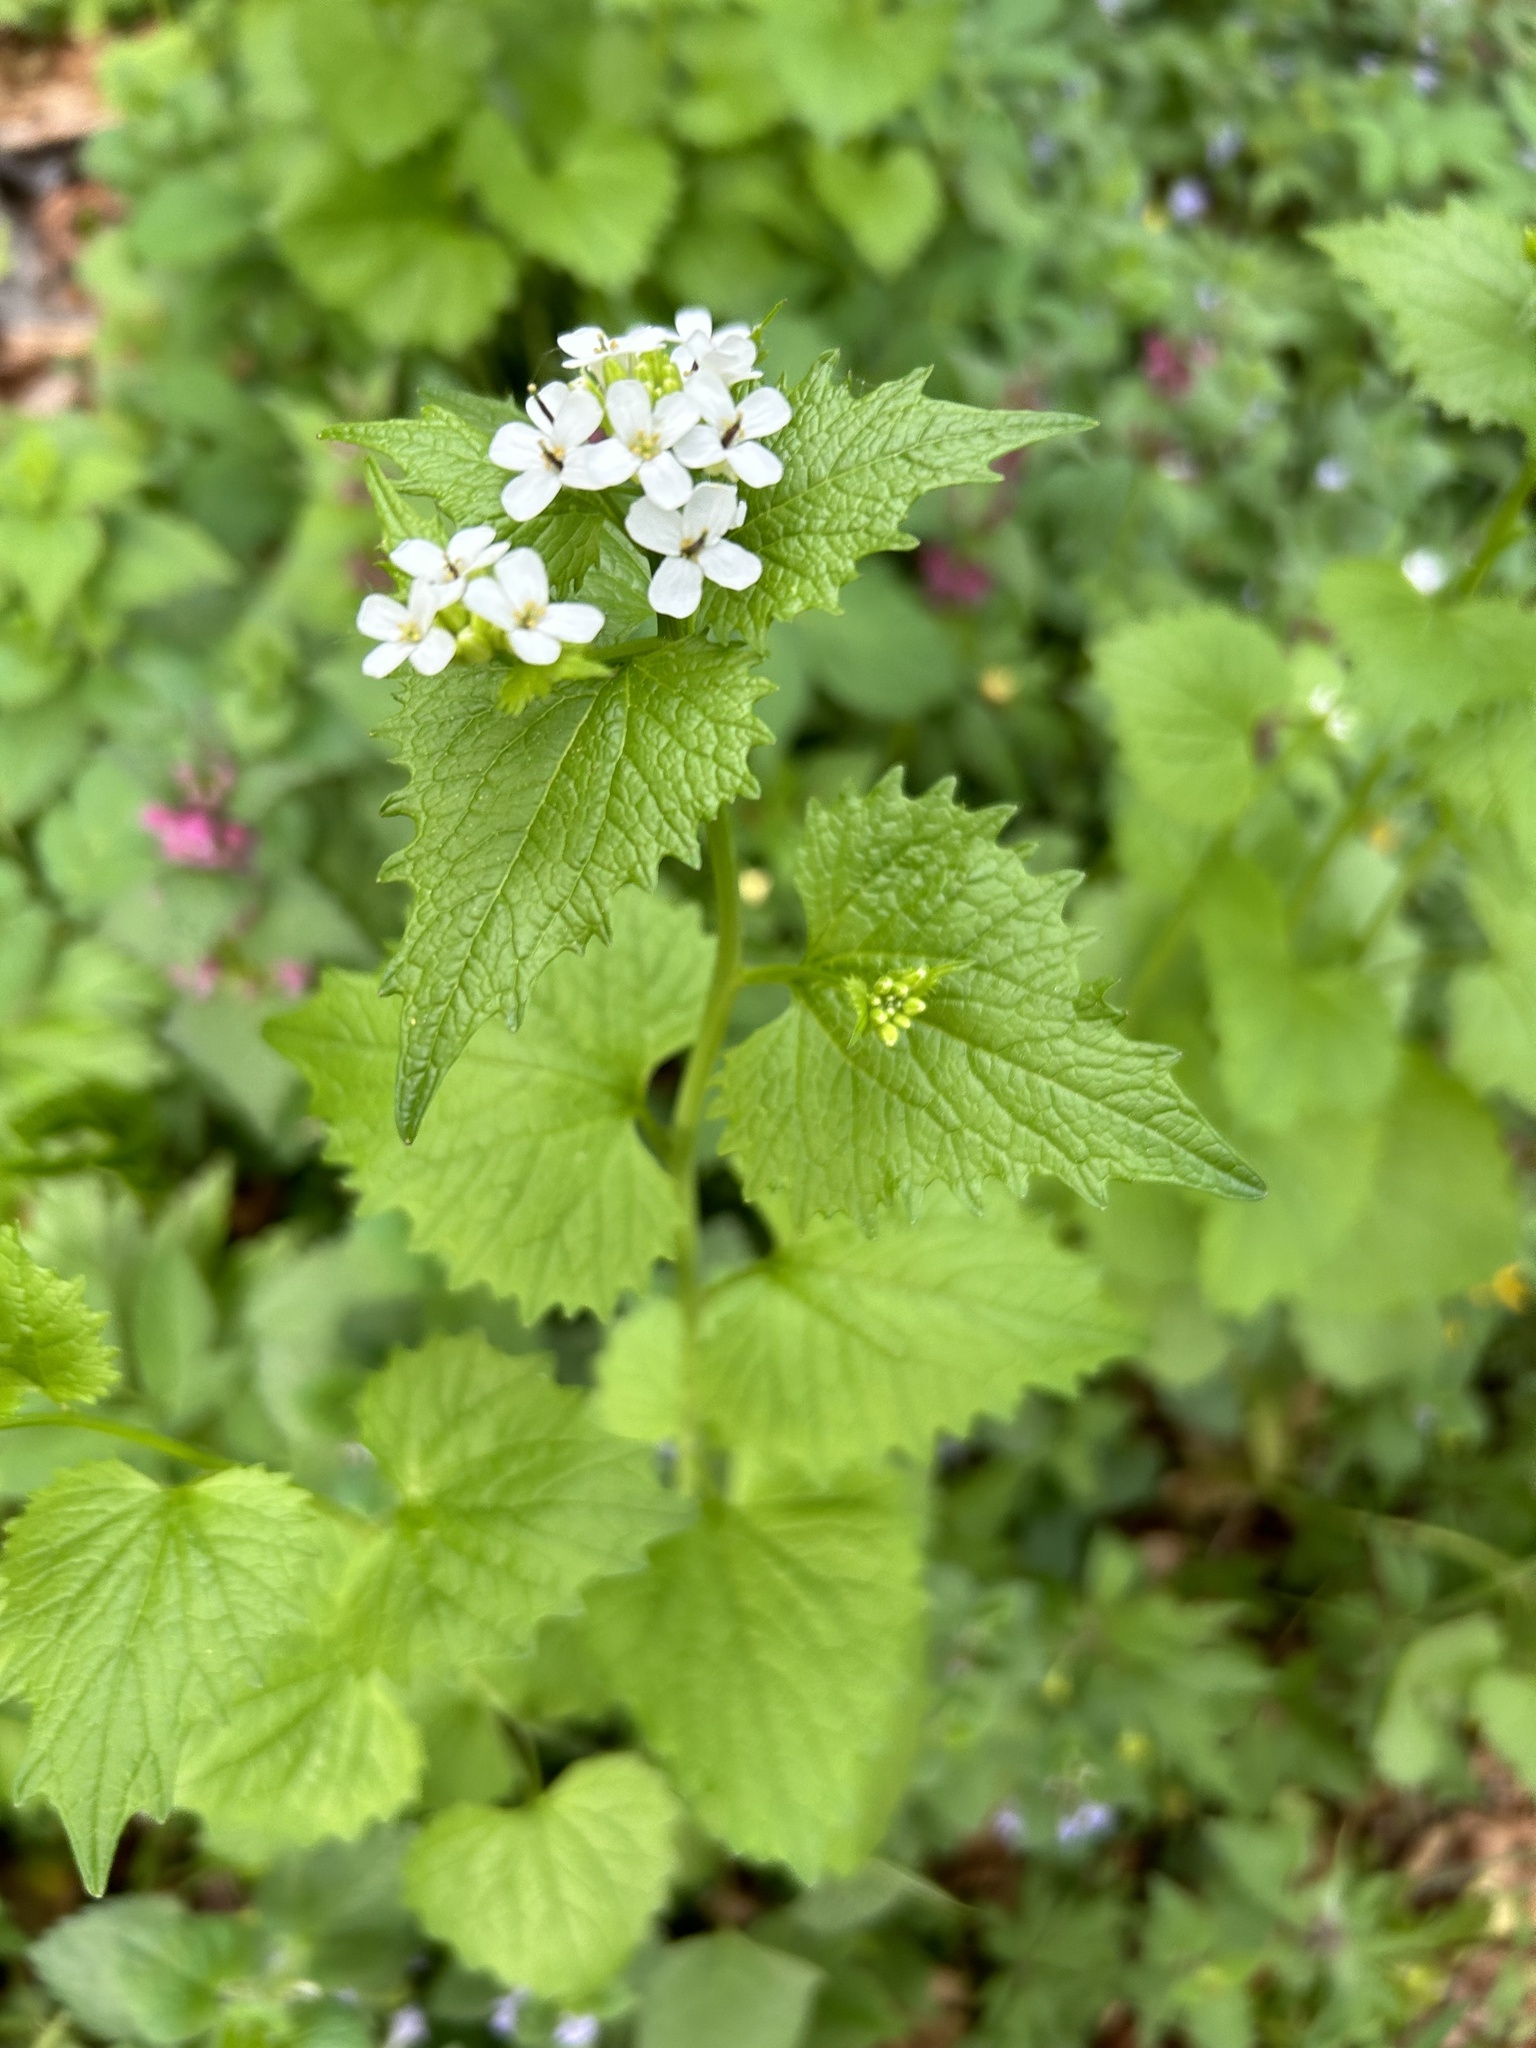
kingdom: Plantae
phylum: Tracheophyta
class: Magnoliopsida
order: Brassicales
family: Brassicaceae
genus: Alliaria
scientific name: Alliaria petiolata
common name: Garlic mustard
